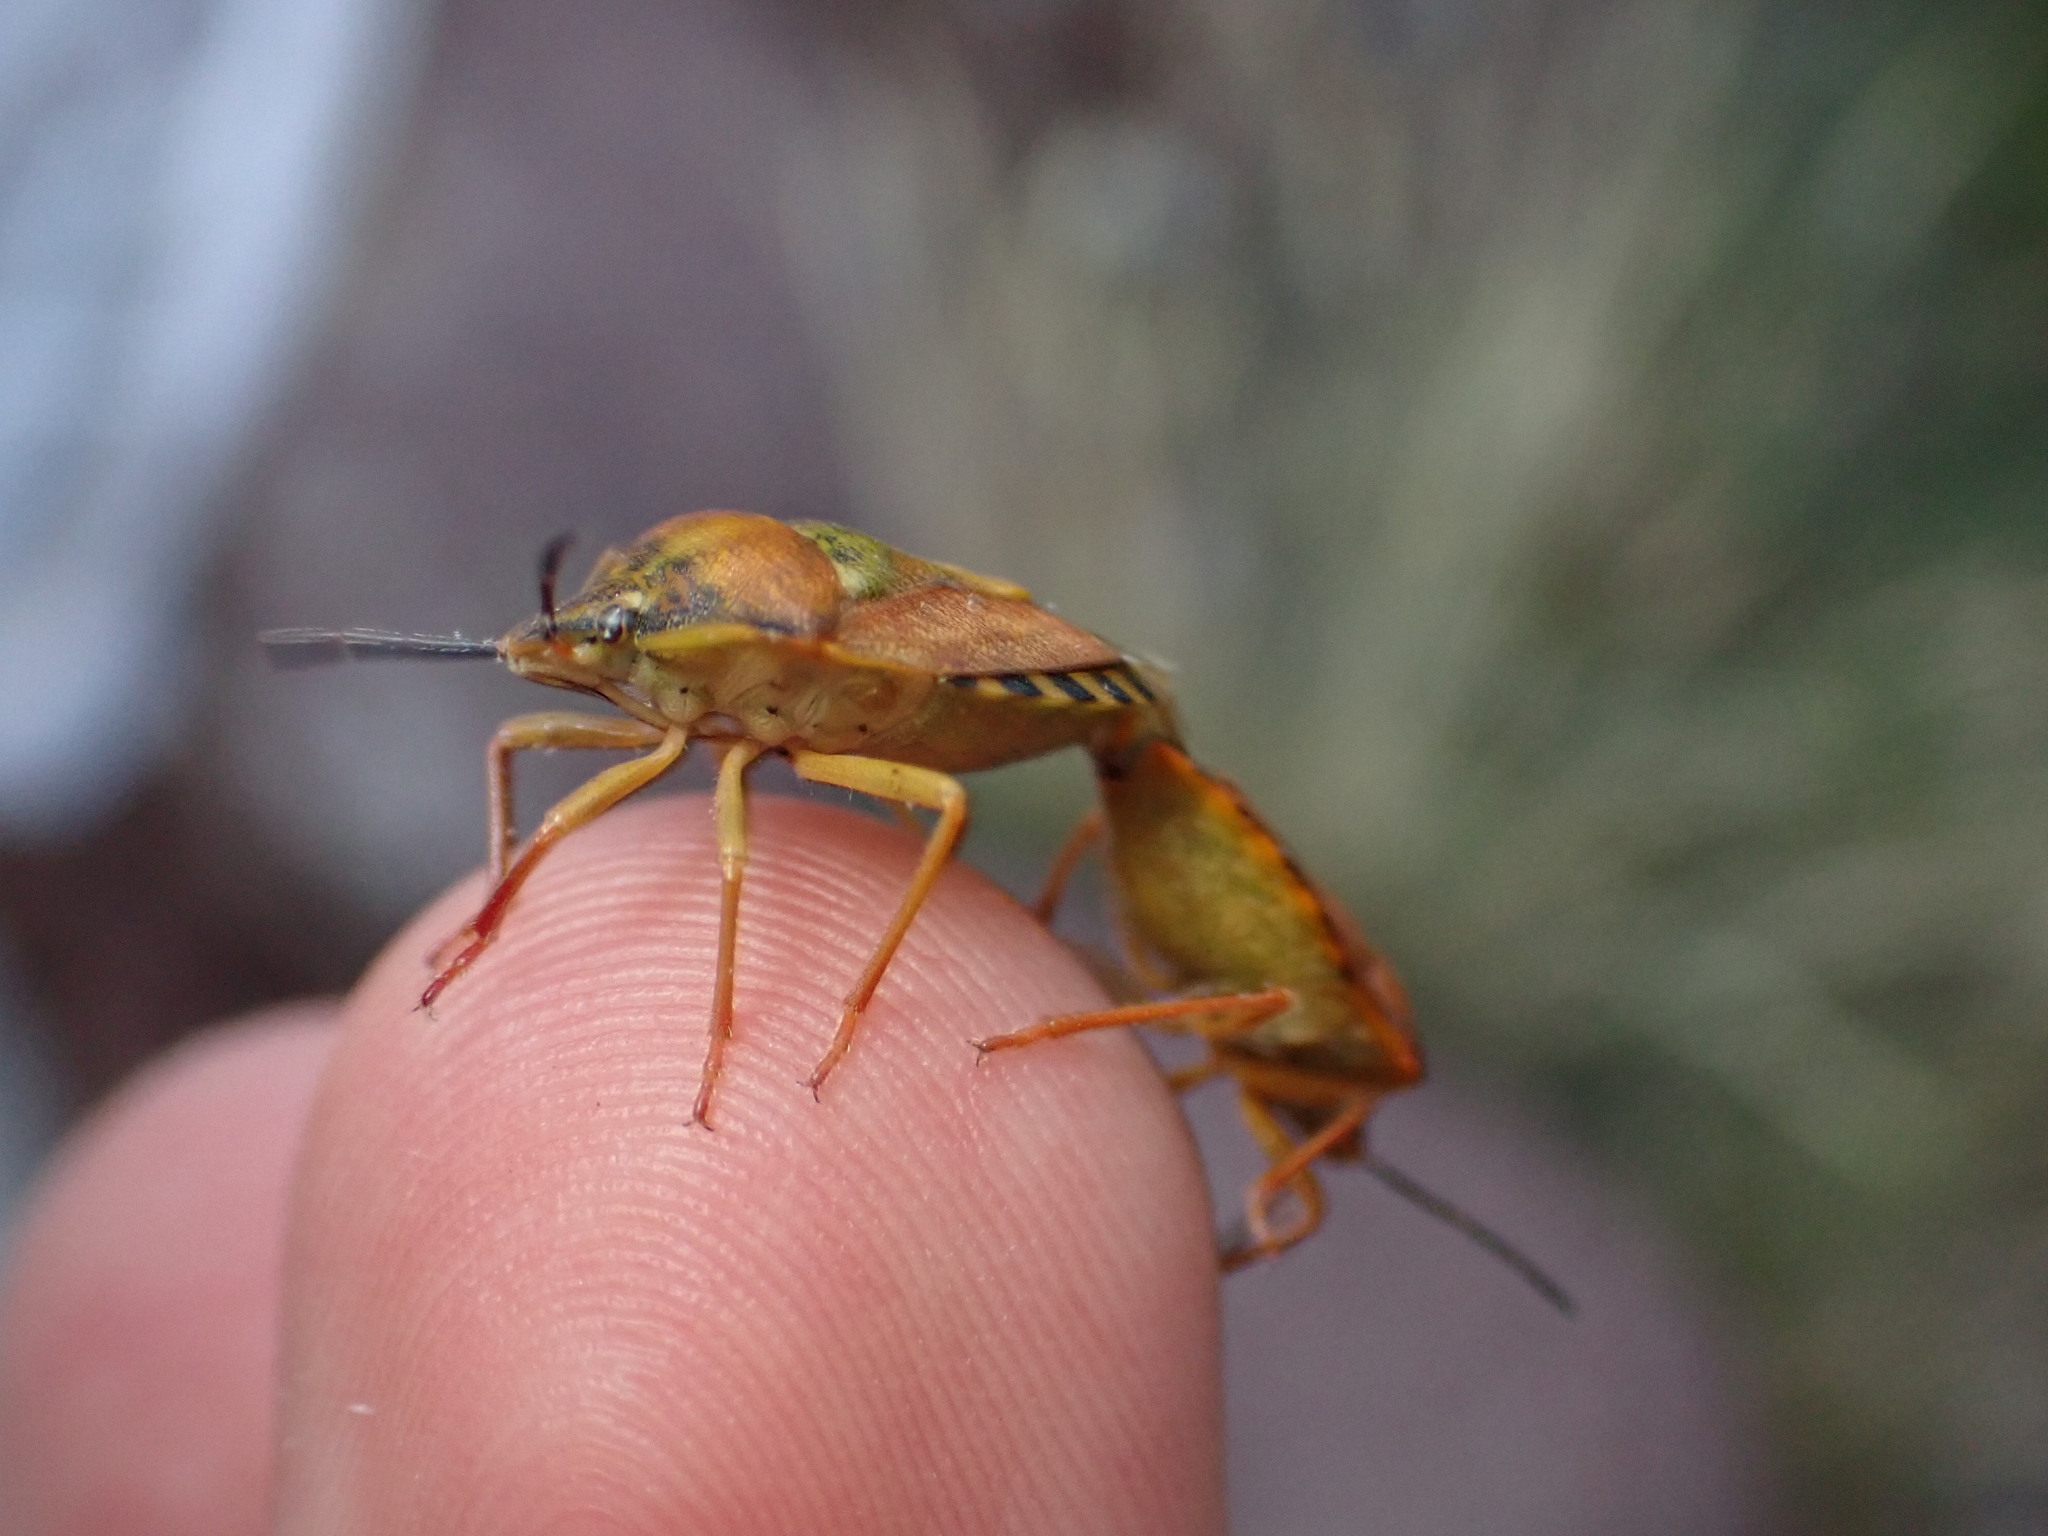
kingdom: Animalia
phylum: Arthropoda
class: Insecta
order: Hemiptera
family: Pentatomidae
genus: Carpocoris
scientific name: Carpocoris purpureipennis
